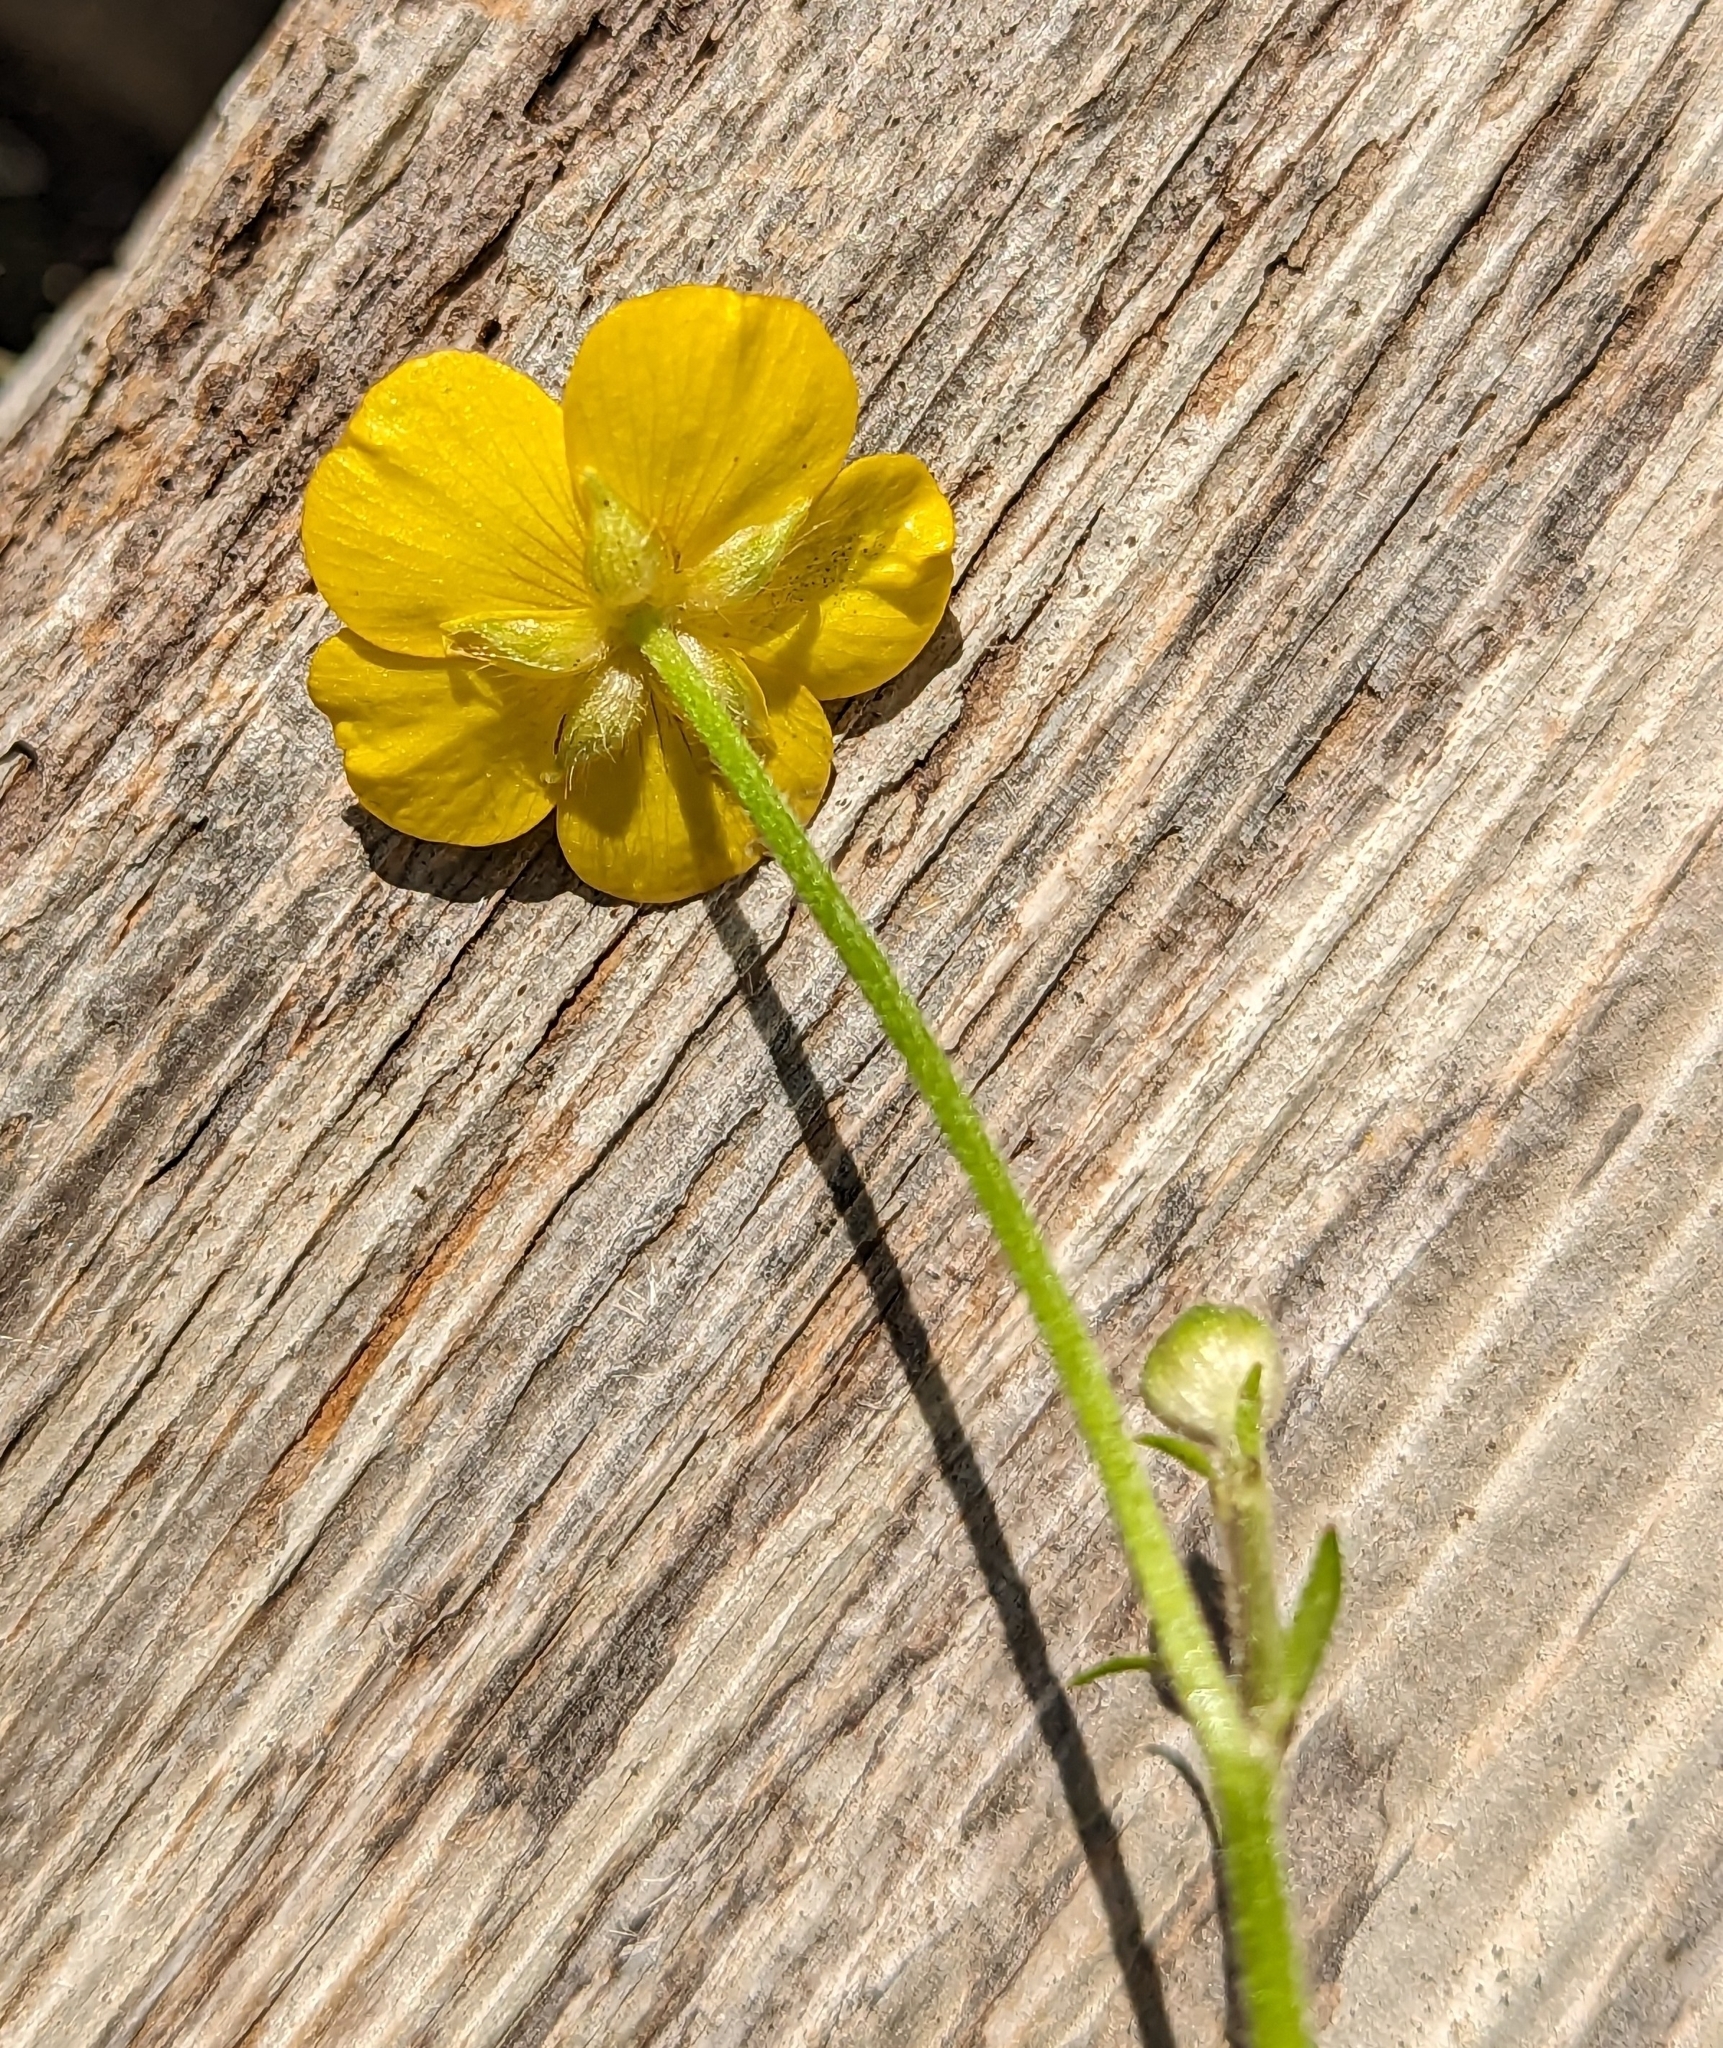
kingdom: Plantae
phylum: Tracheophyta
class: Magnoliopsida
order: Ranunculales
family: Ranunculaceae
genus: Ranunculus
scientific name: Ranunculus repens
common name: Creeping buttercup
